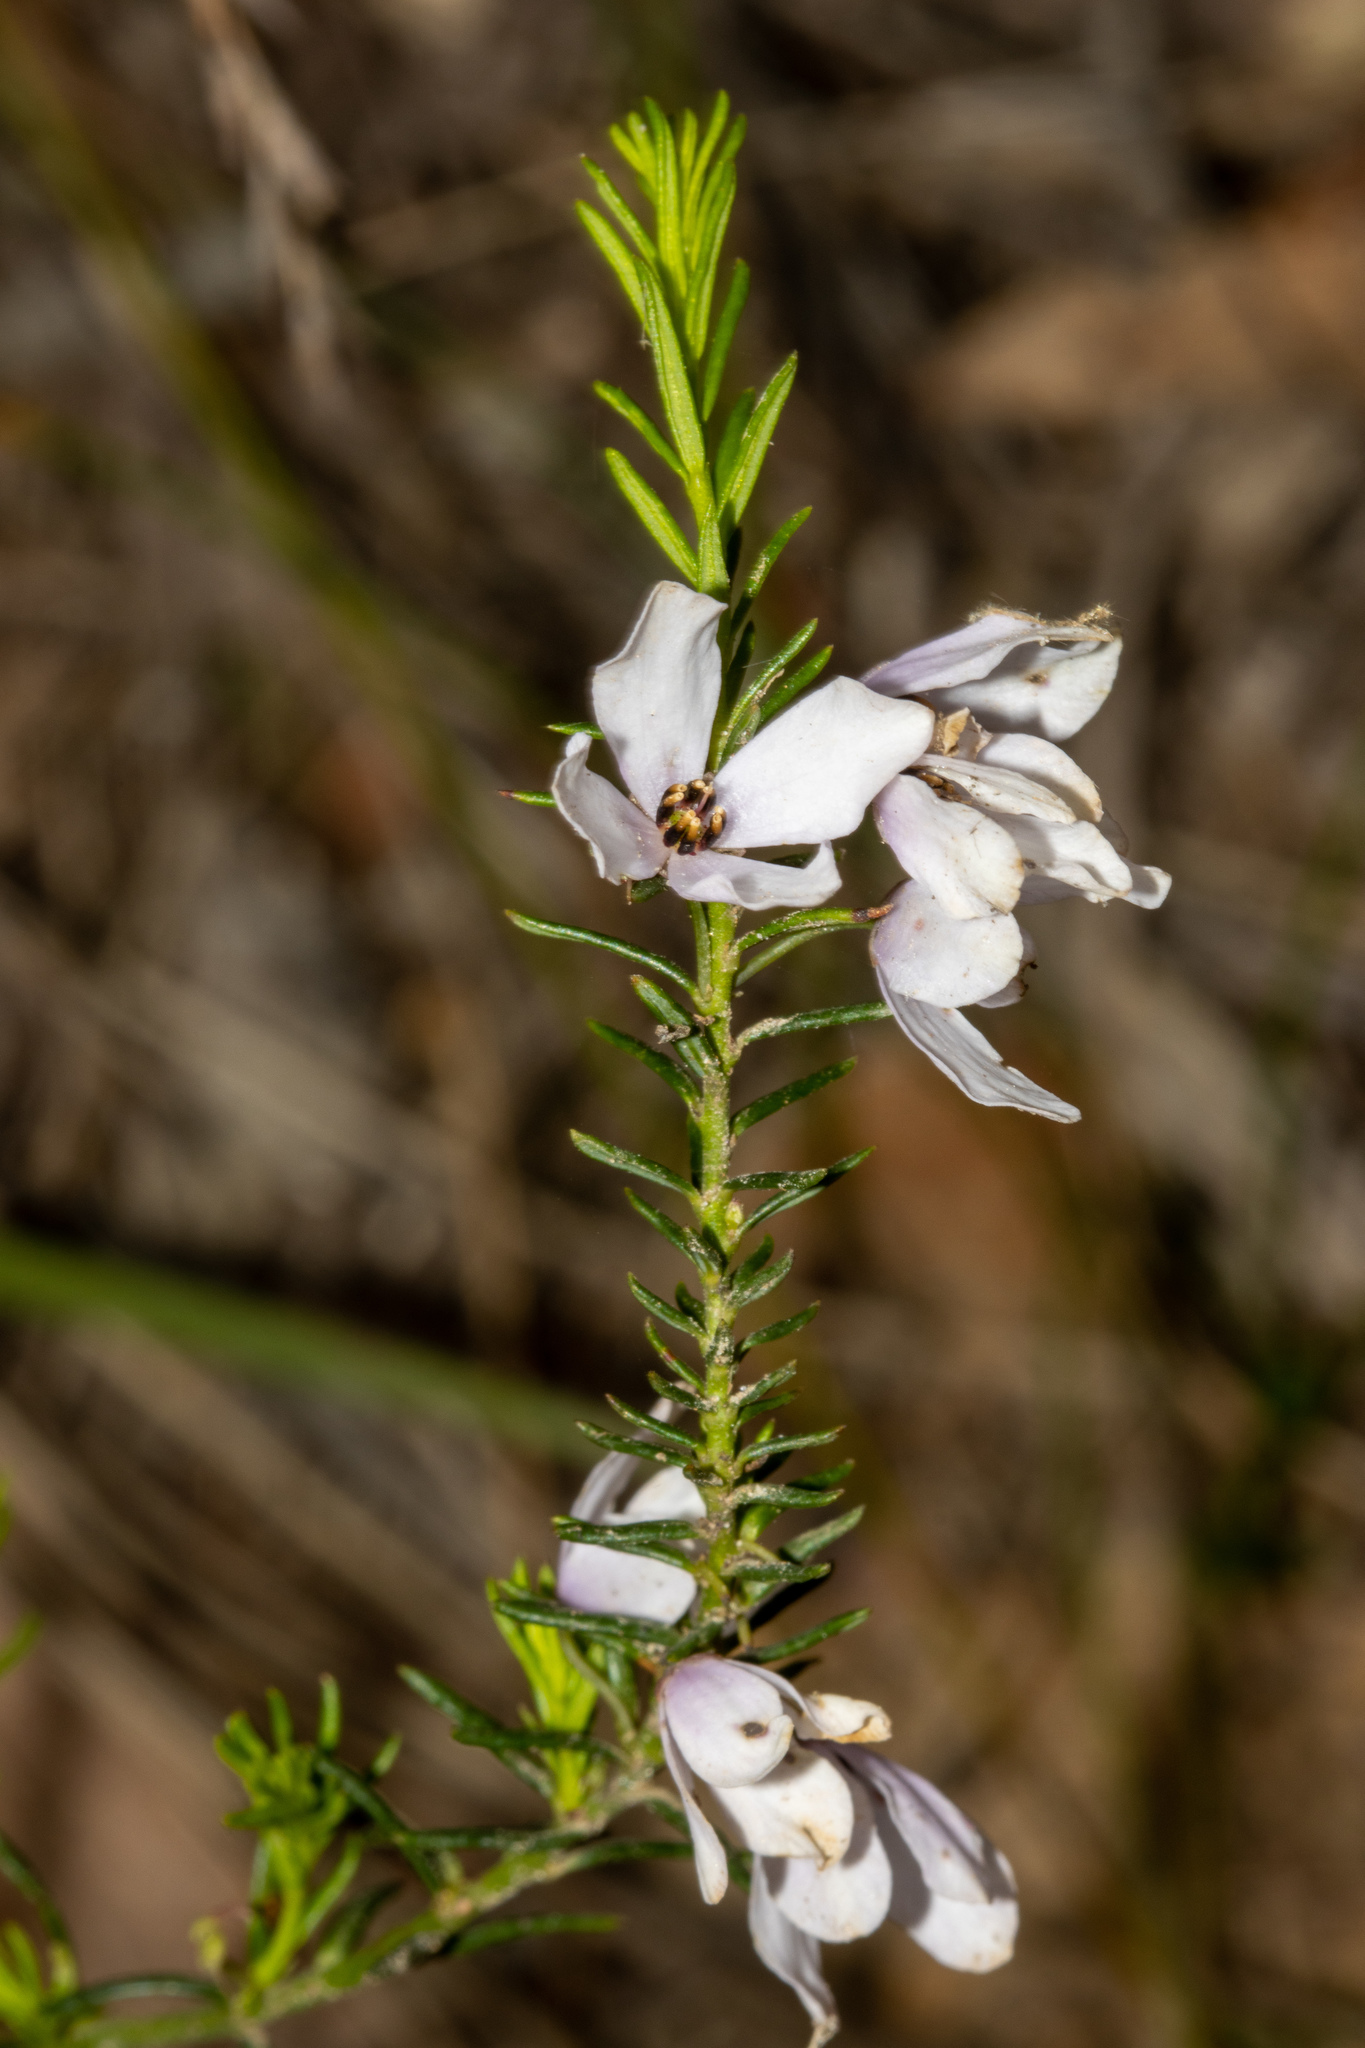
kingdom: Plantae
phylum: Tracheophyta
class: Magnoliopsida
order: Oxalidales
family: Elaeocarpaceae
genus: Tetratheca
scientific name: Tetratheca pilosa
